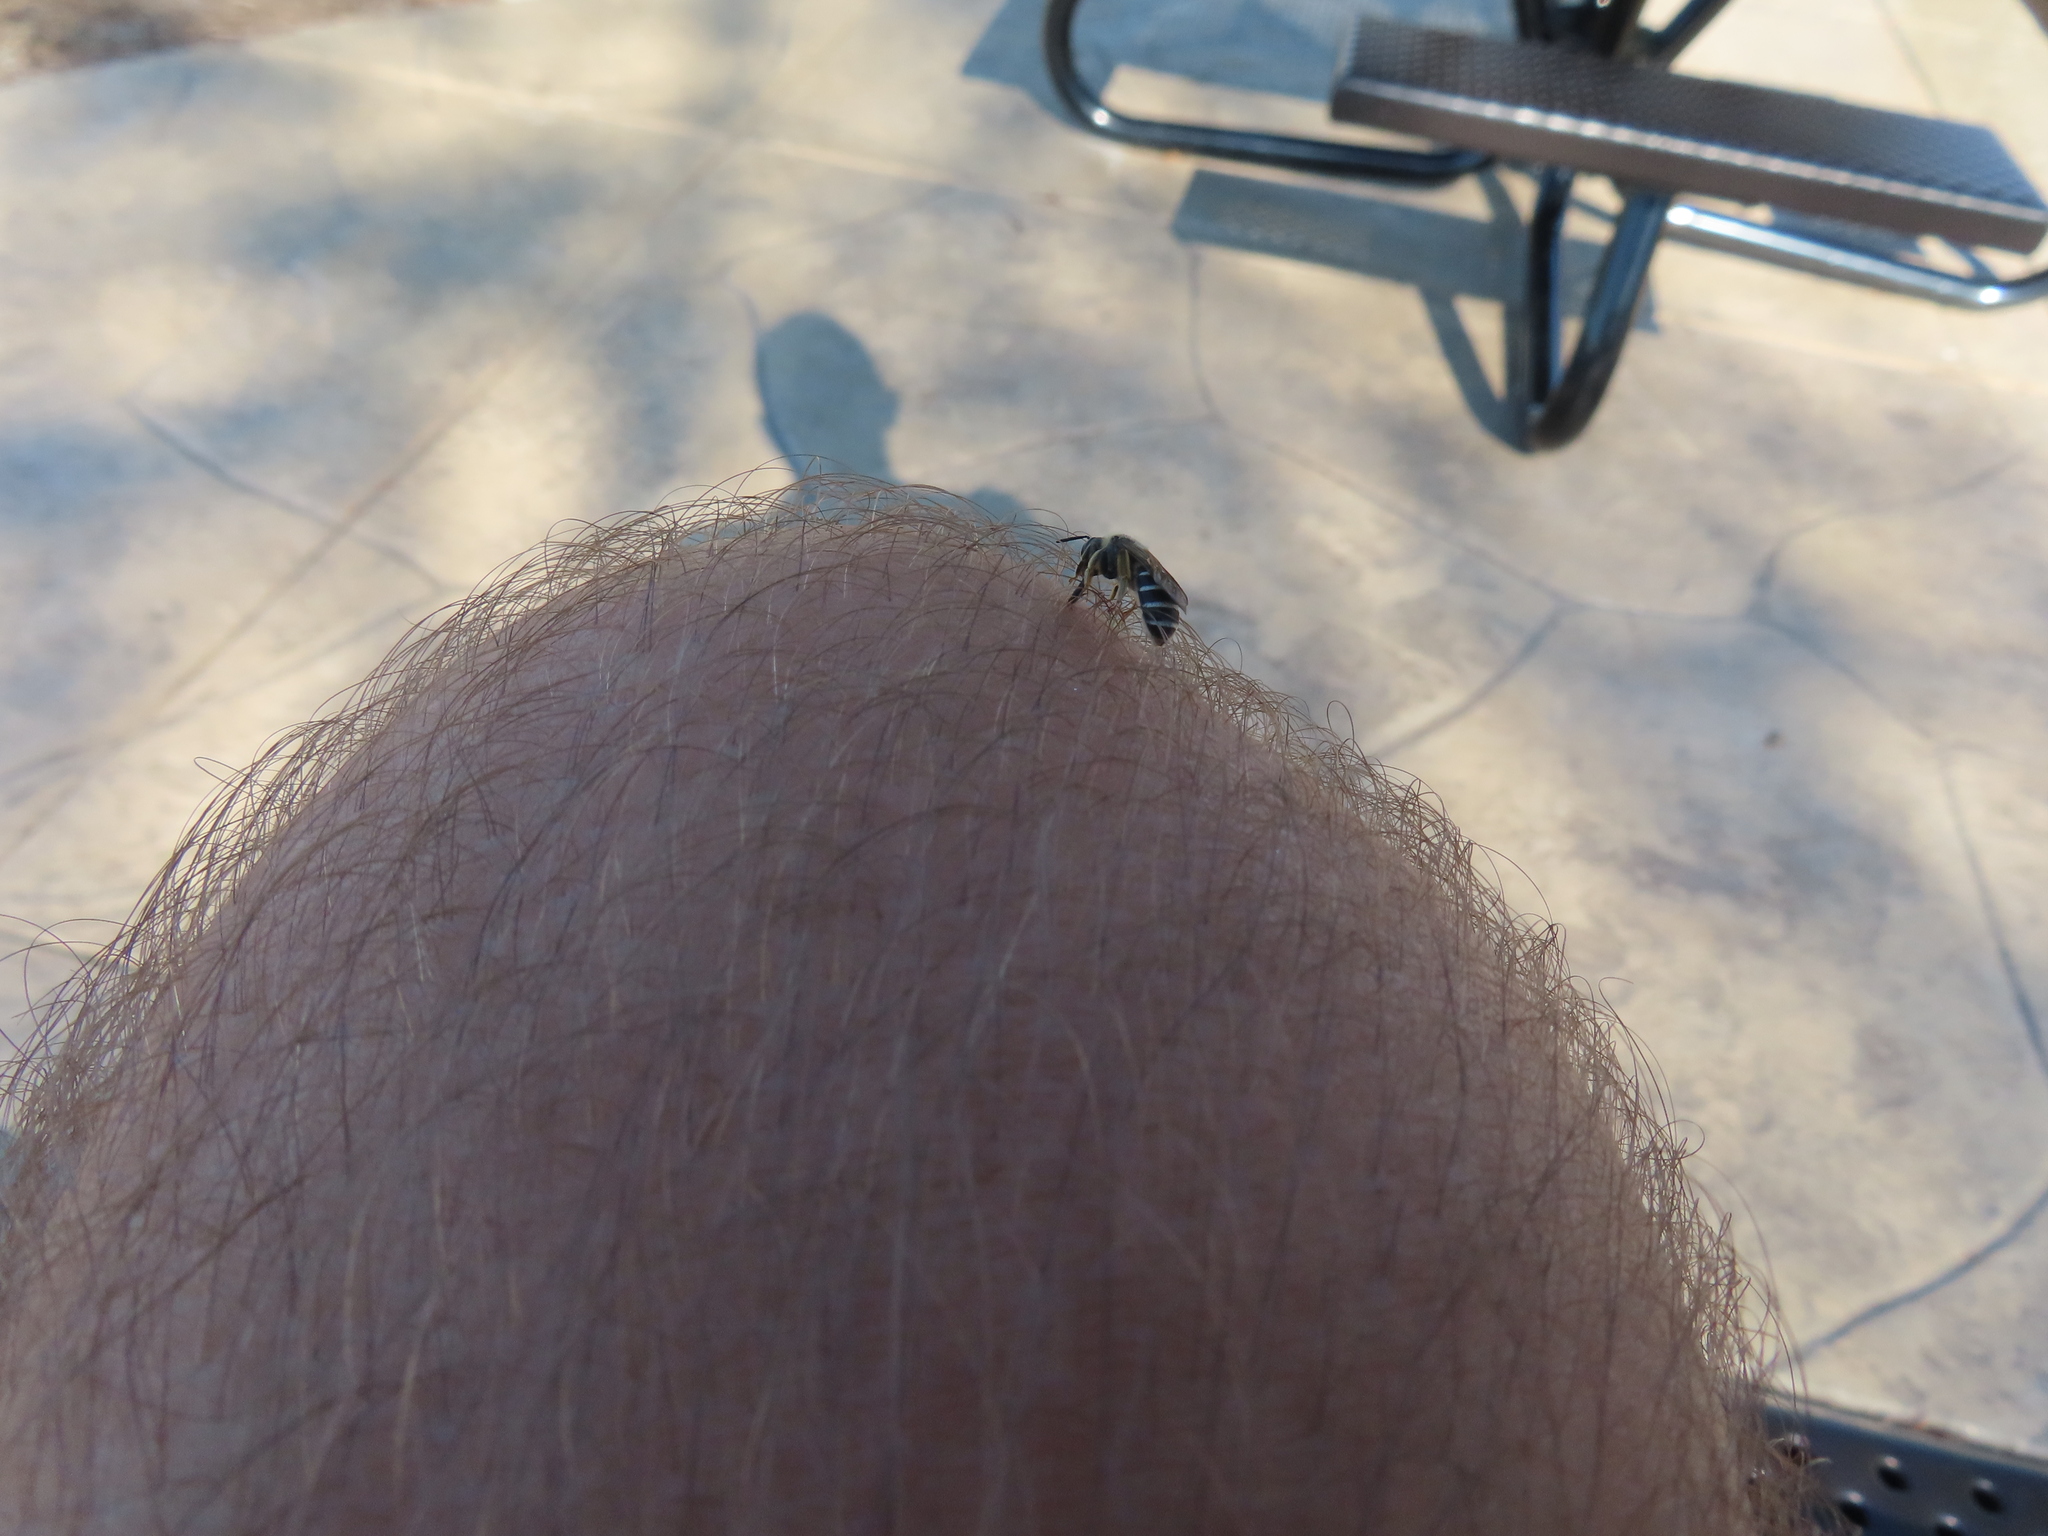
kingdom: Animalia
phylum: Arthropoda
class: Insecta
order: Hymenoptera
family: Halictidae
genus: Halictus
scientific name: Halictus rubicundus
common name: Orange-legged furrow bee
